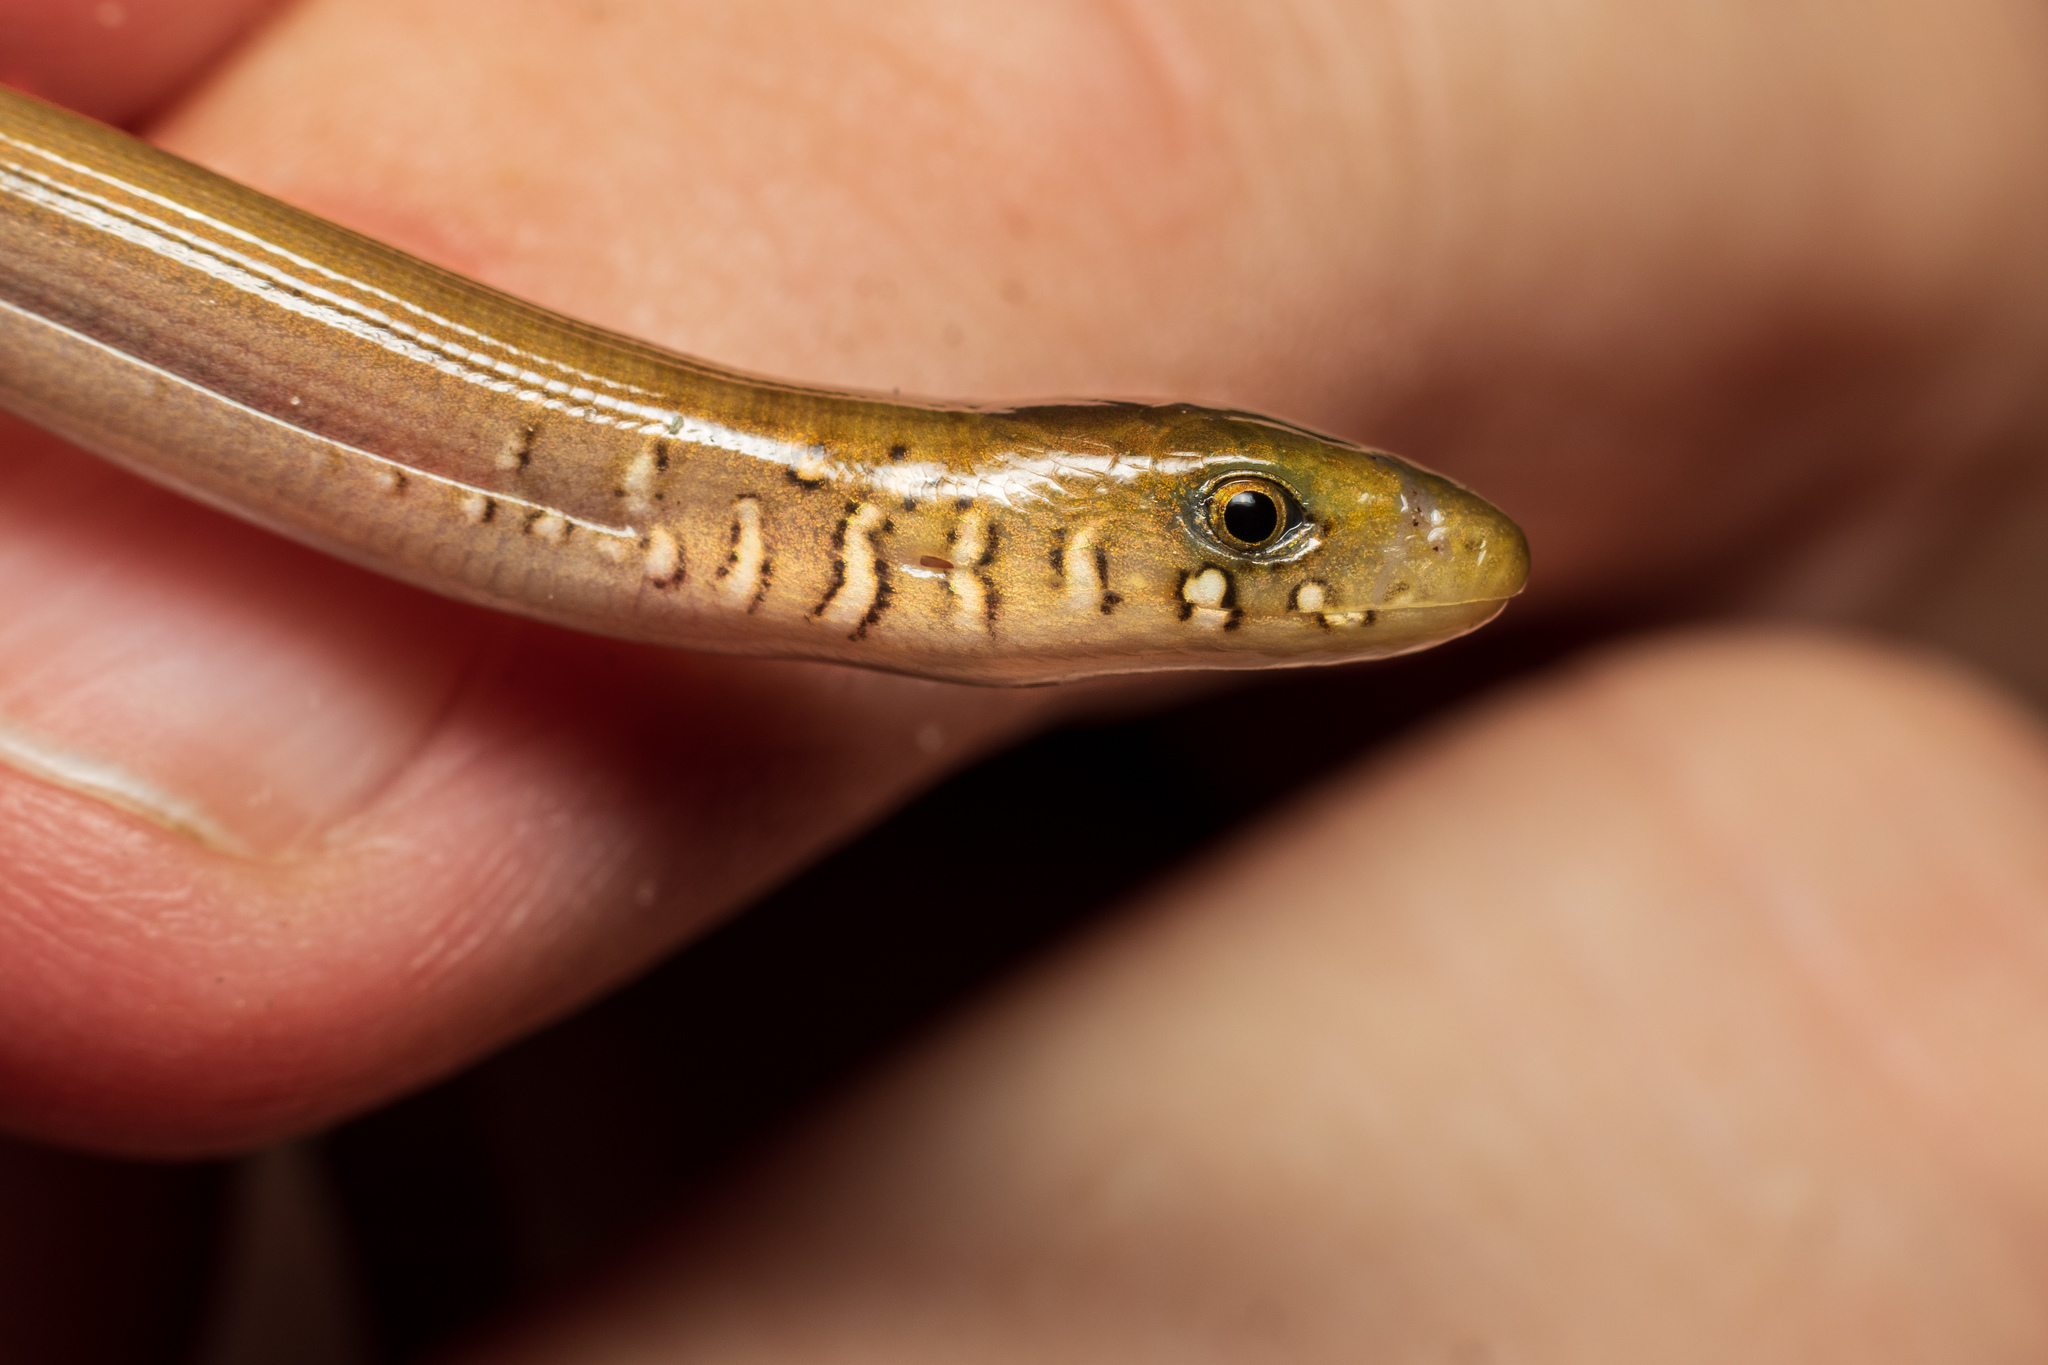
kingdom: Animalia
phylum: Chordata
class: Squamata
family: Anguidae
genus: Ophisaurus
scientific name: Ophisaurus ventralis
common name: Eastern glass lizard
